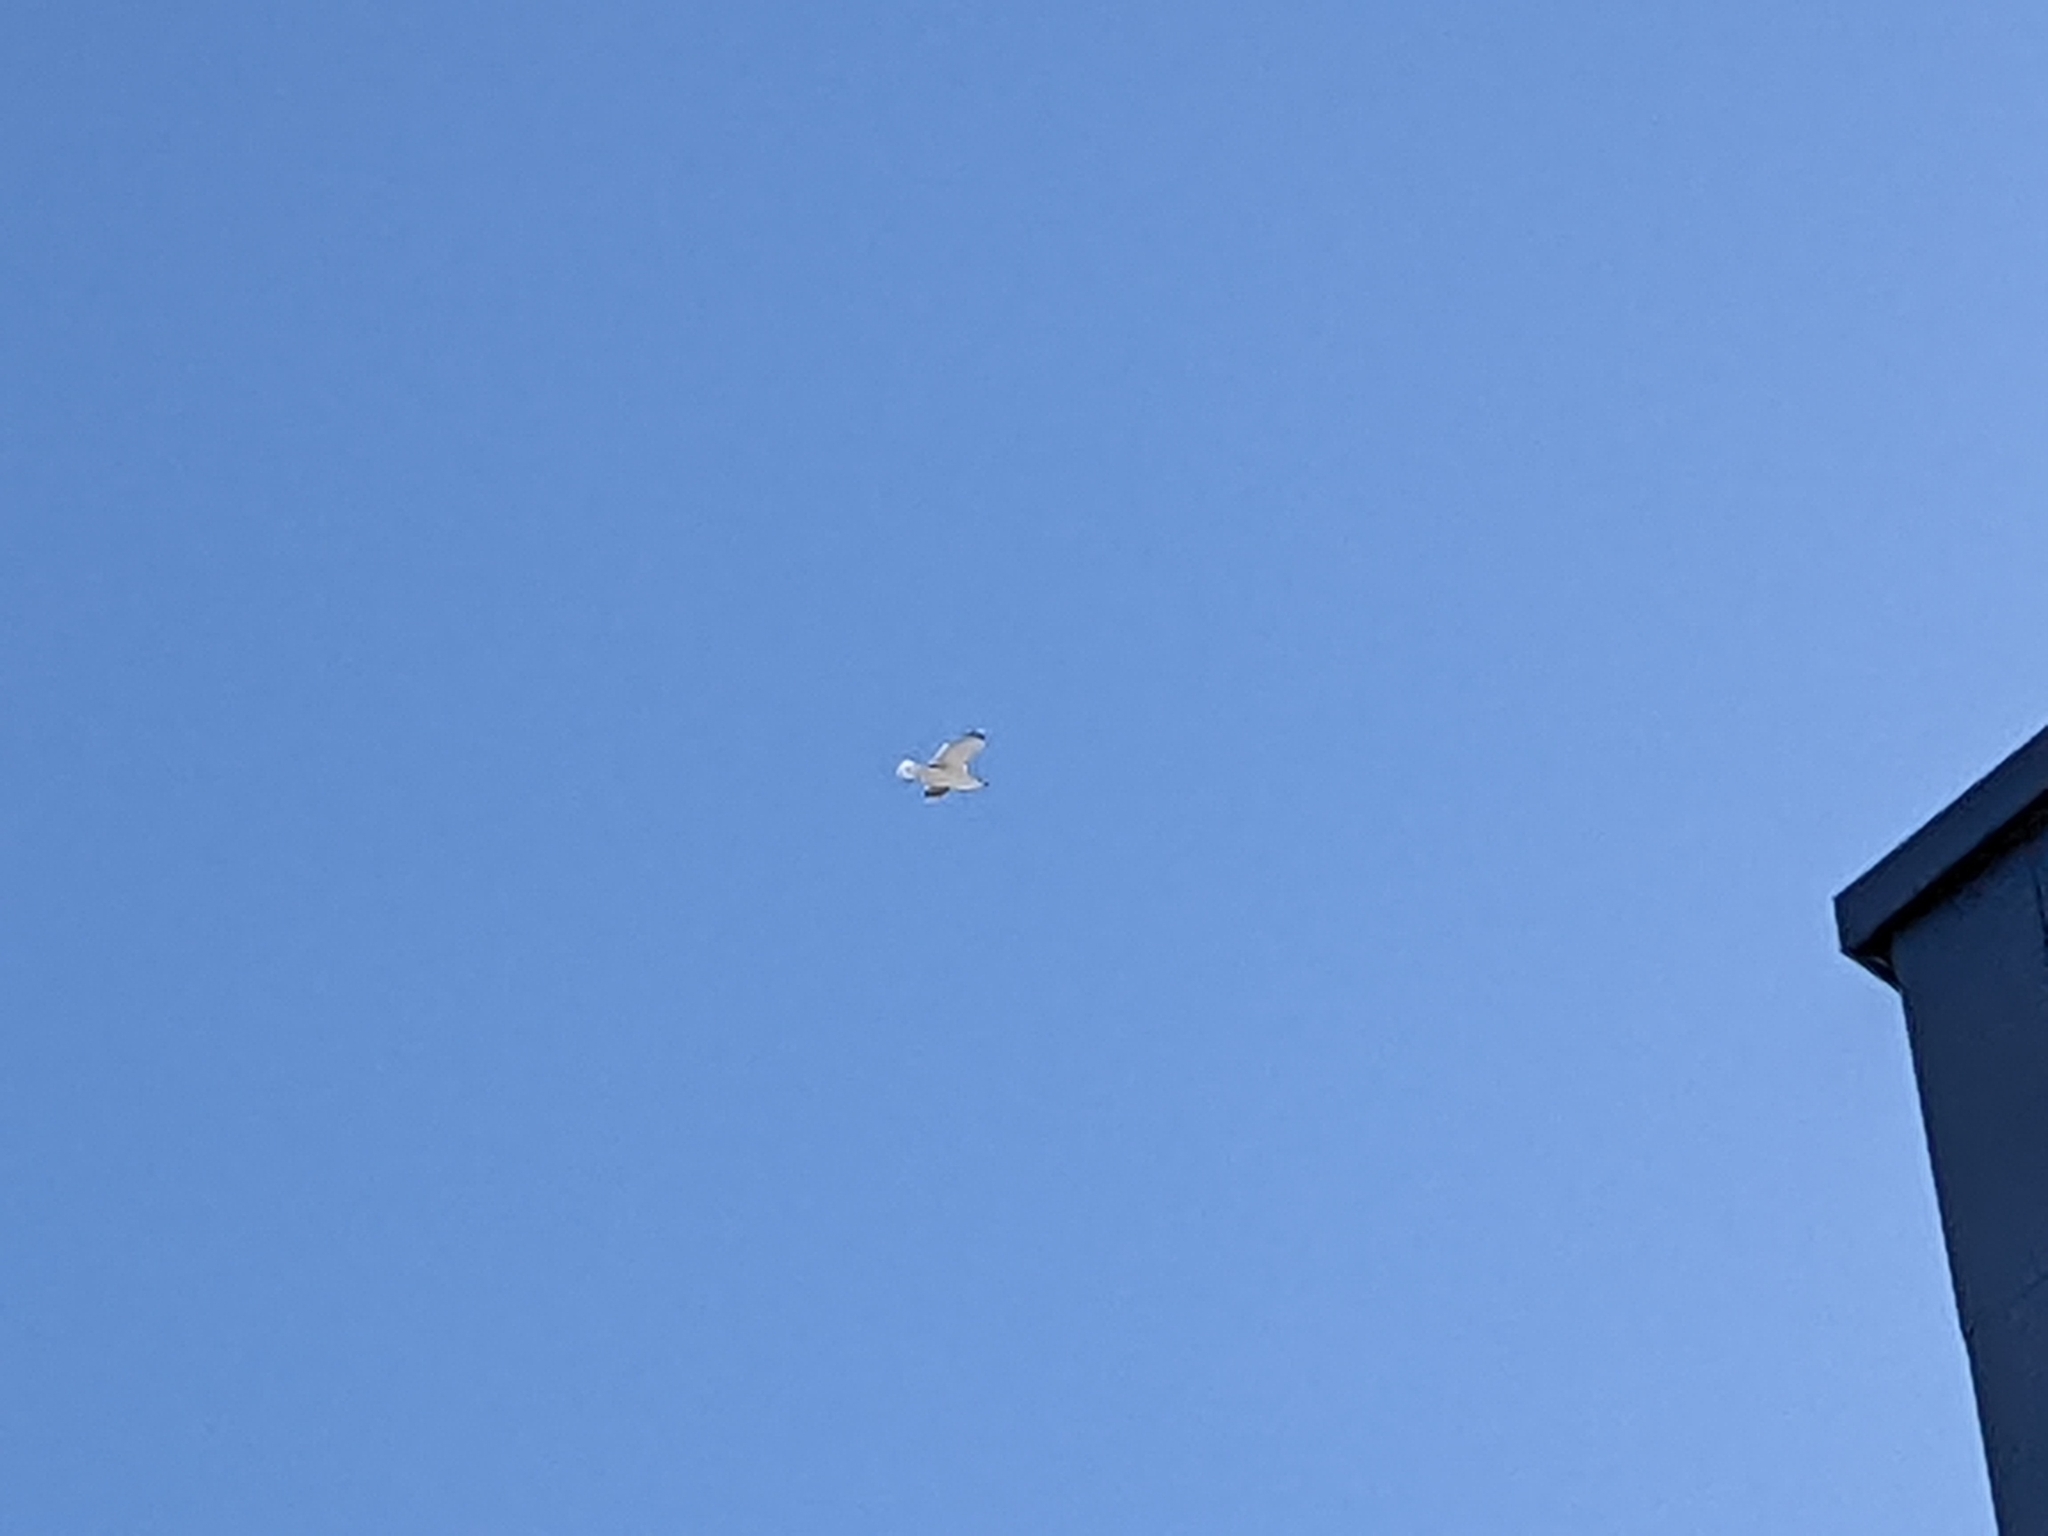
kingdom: Animalia
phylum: Chordata
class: Aves
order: Charadriiformes
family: Laridae
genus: Larus
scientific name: Larus
